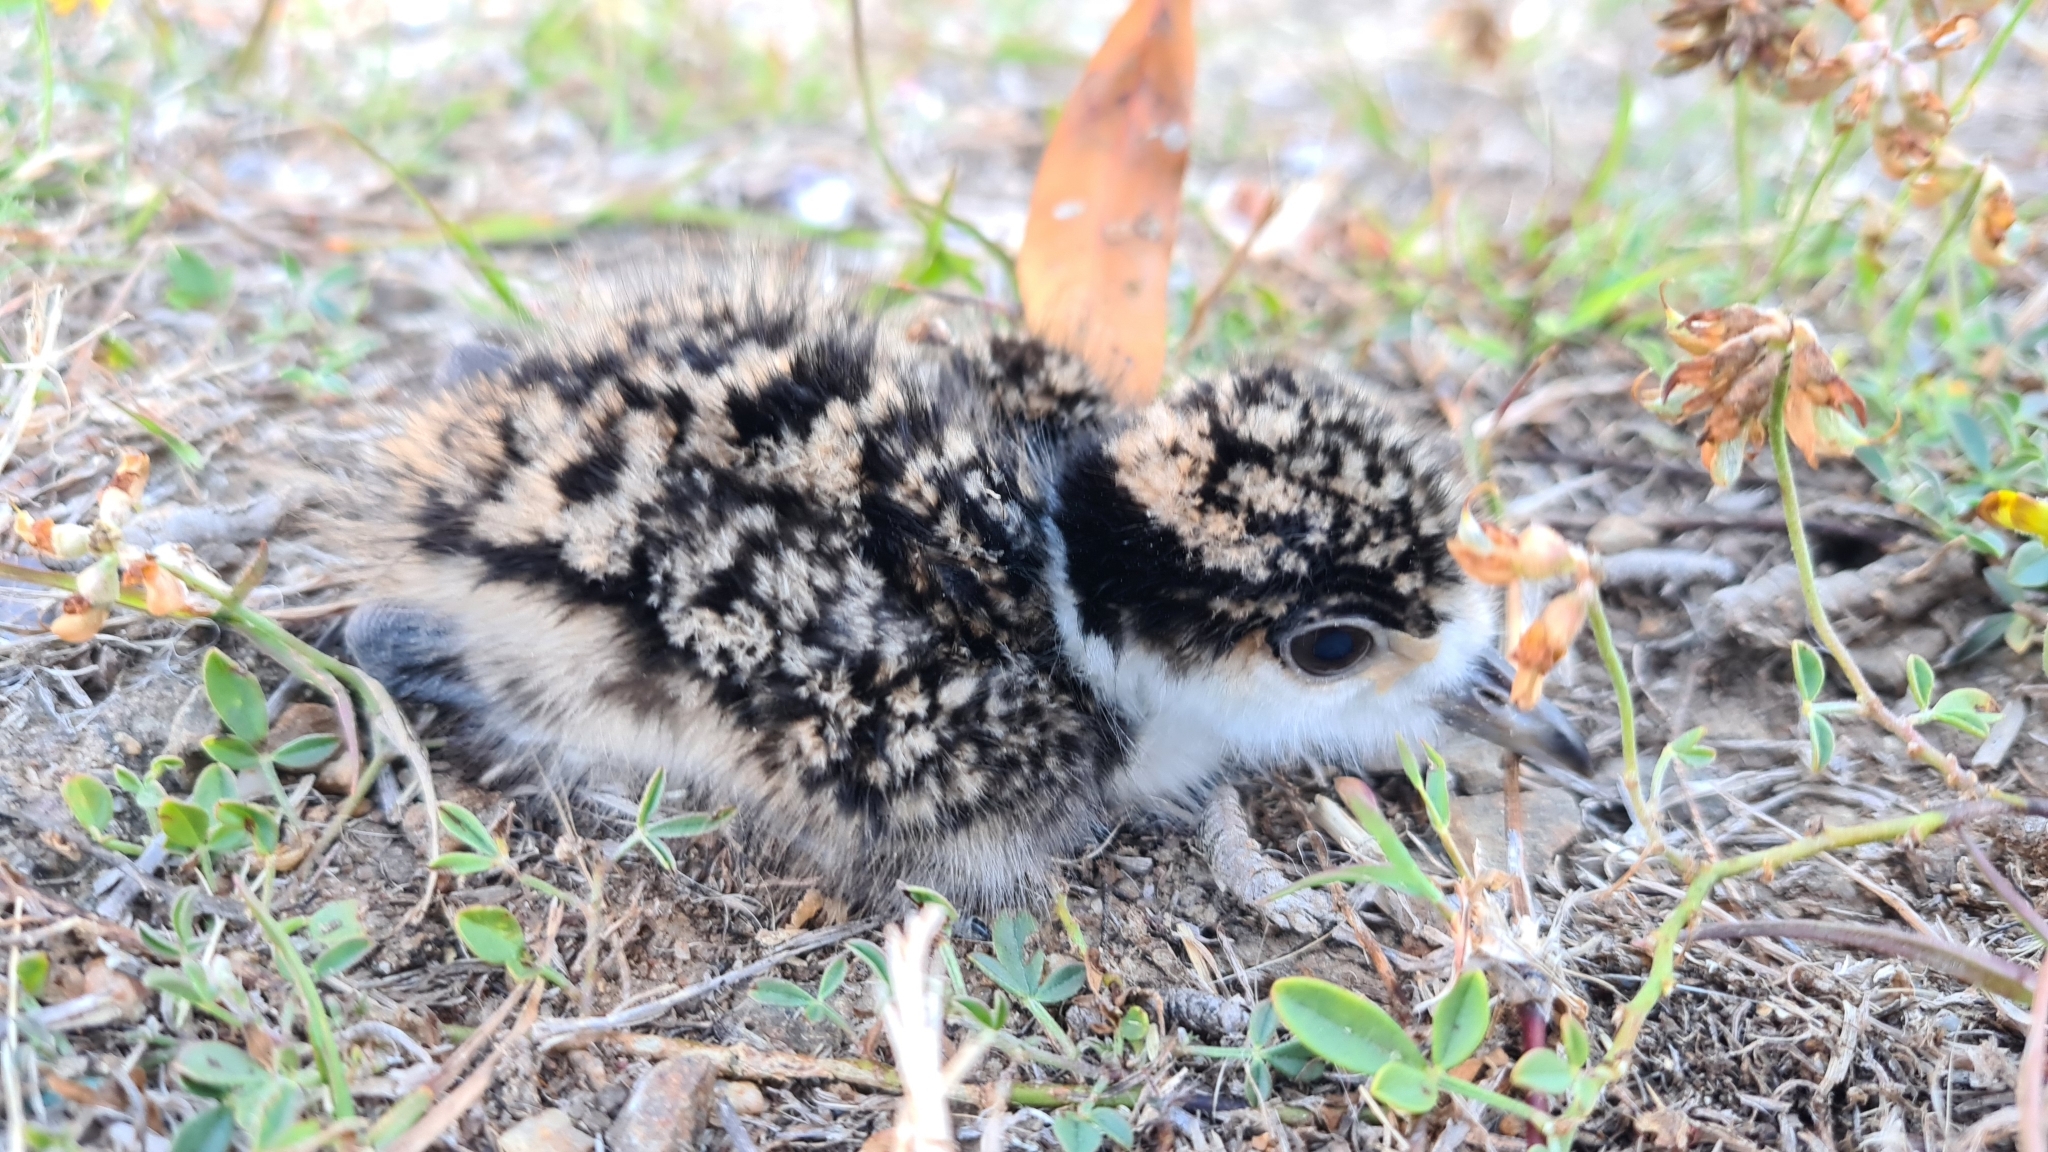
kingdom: Animalia
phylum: Chordata
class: Aves
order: Charadriiformes
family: Charadriidae
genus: Vanellus
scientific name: Vanellus miles
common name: Masked lapwing
